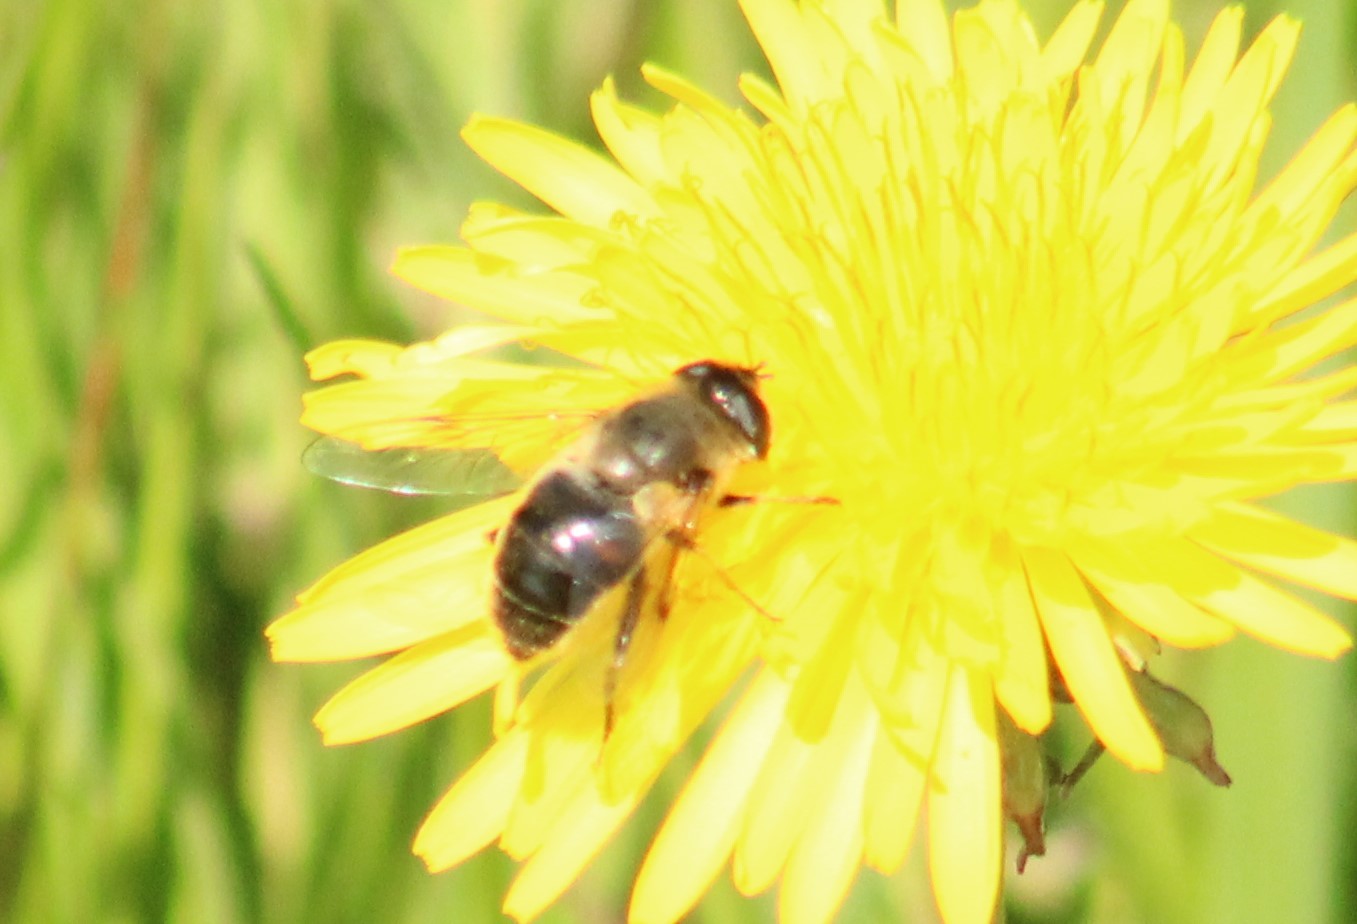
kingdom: Animalia
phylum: Arthropoda
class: Insecta
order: Diptera
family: Syrphidae
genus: Eristalis
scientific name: Eristalis tenax
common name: Drone fly
